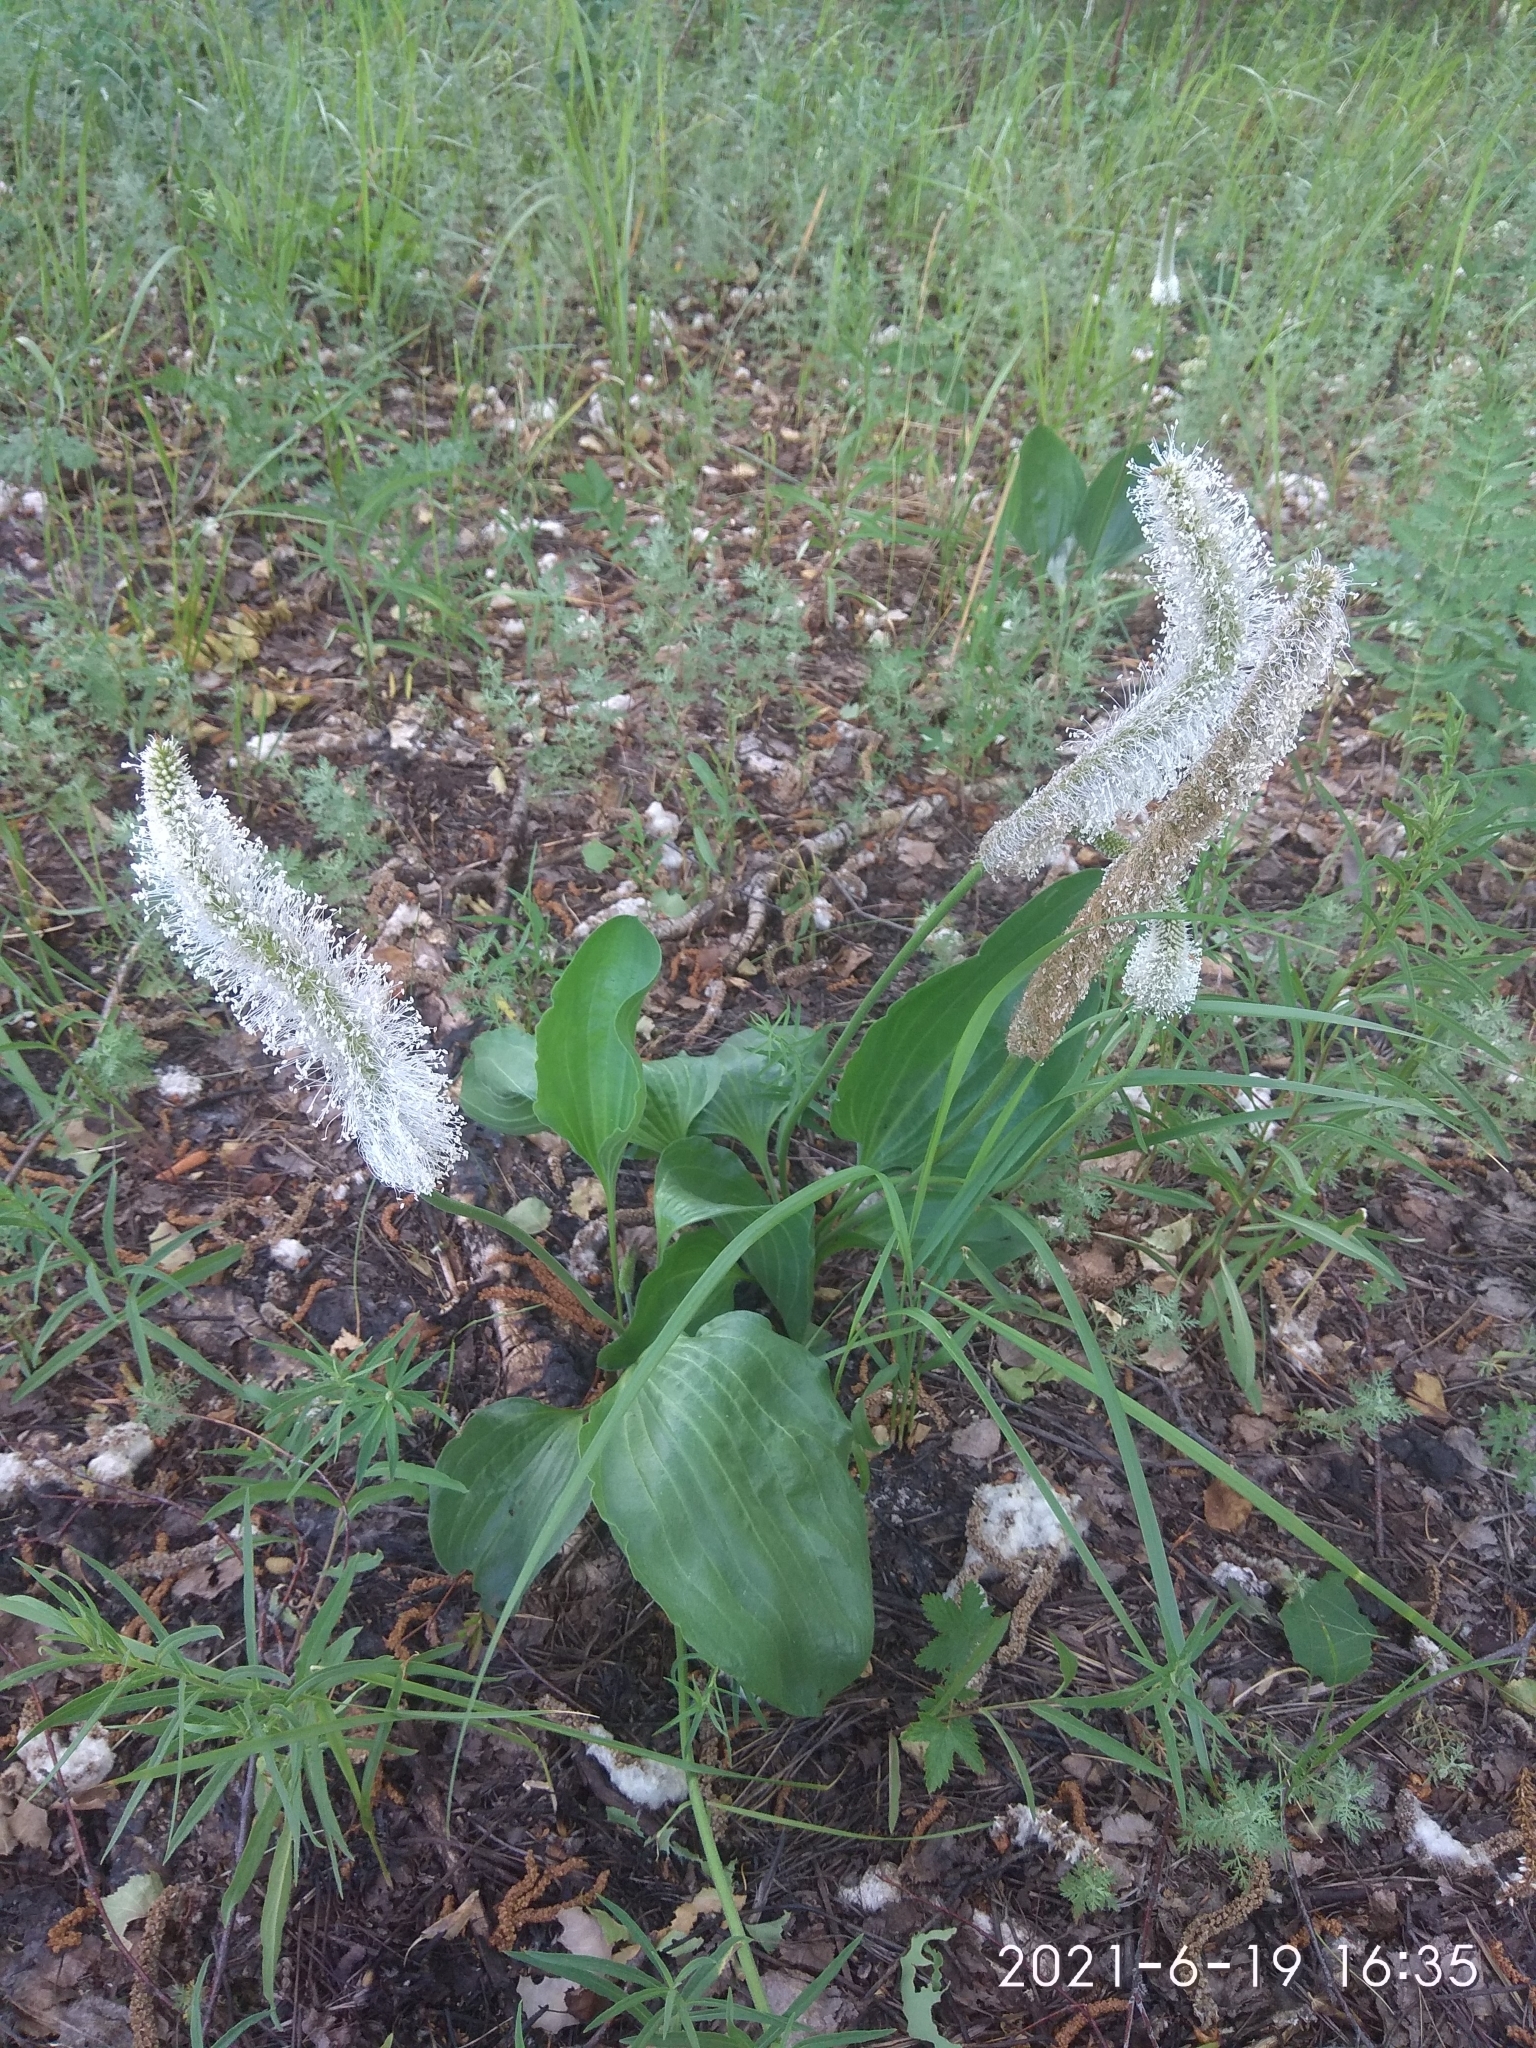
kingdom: Plantae
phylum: Tracheophyta
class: Magnoliopsida
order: Lamiales
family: Plantaginaceae
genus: Plantago
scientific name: Plantago maxima
